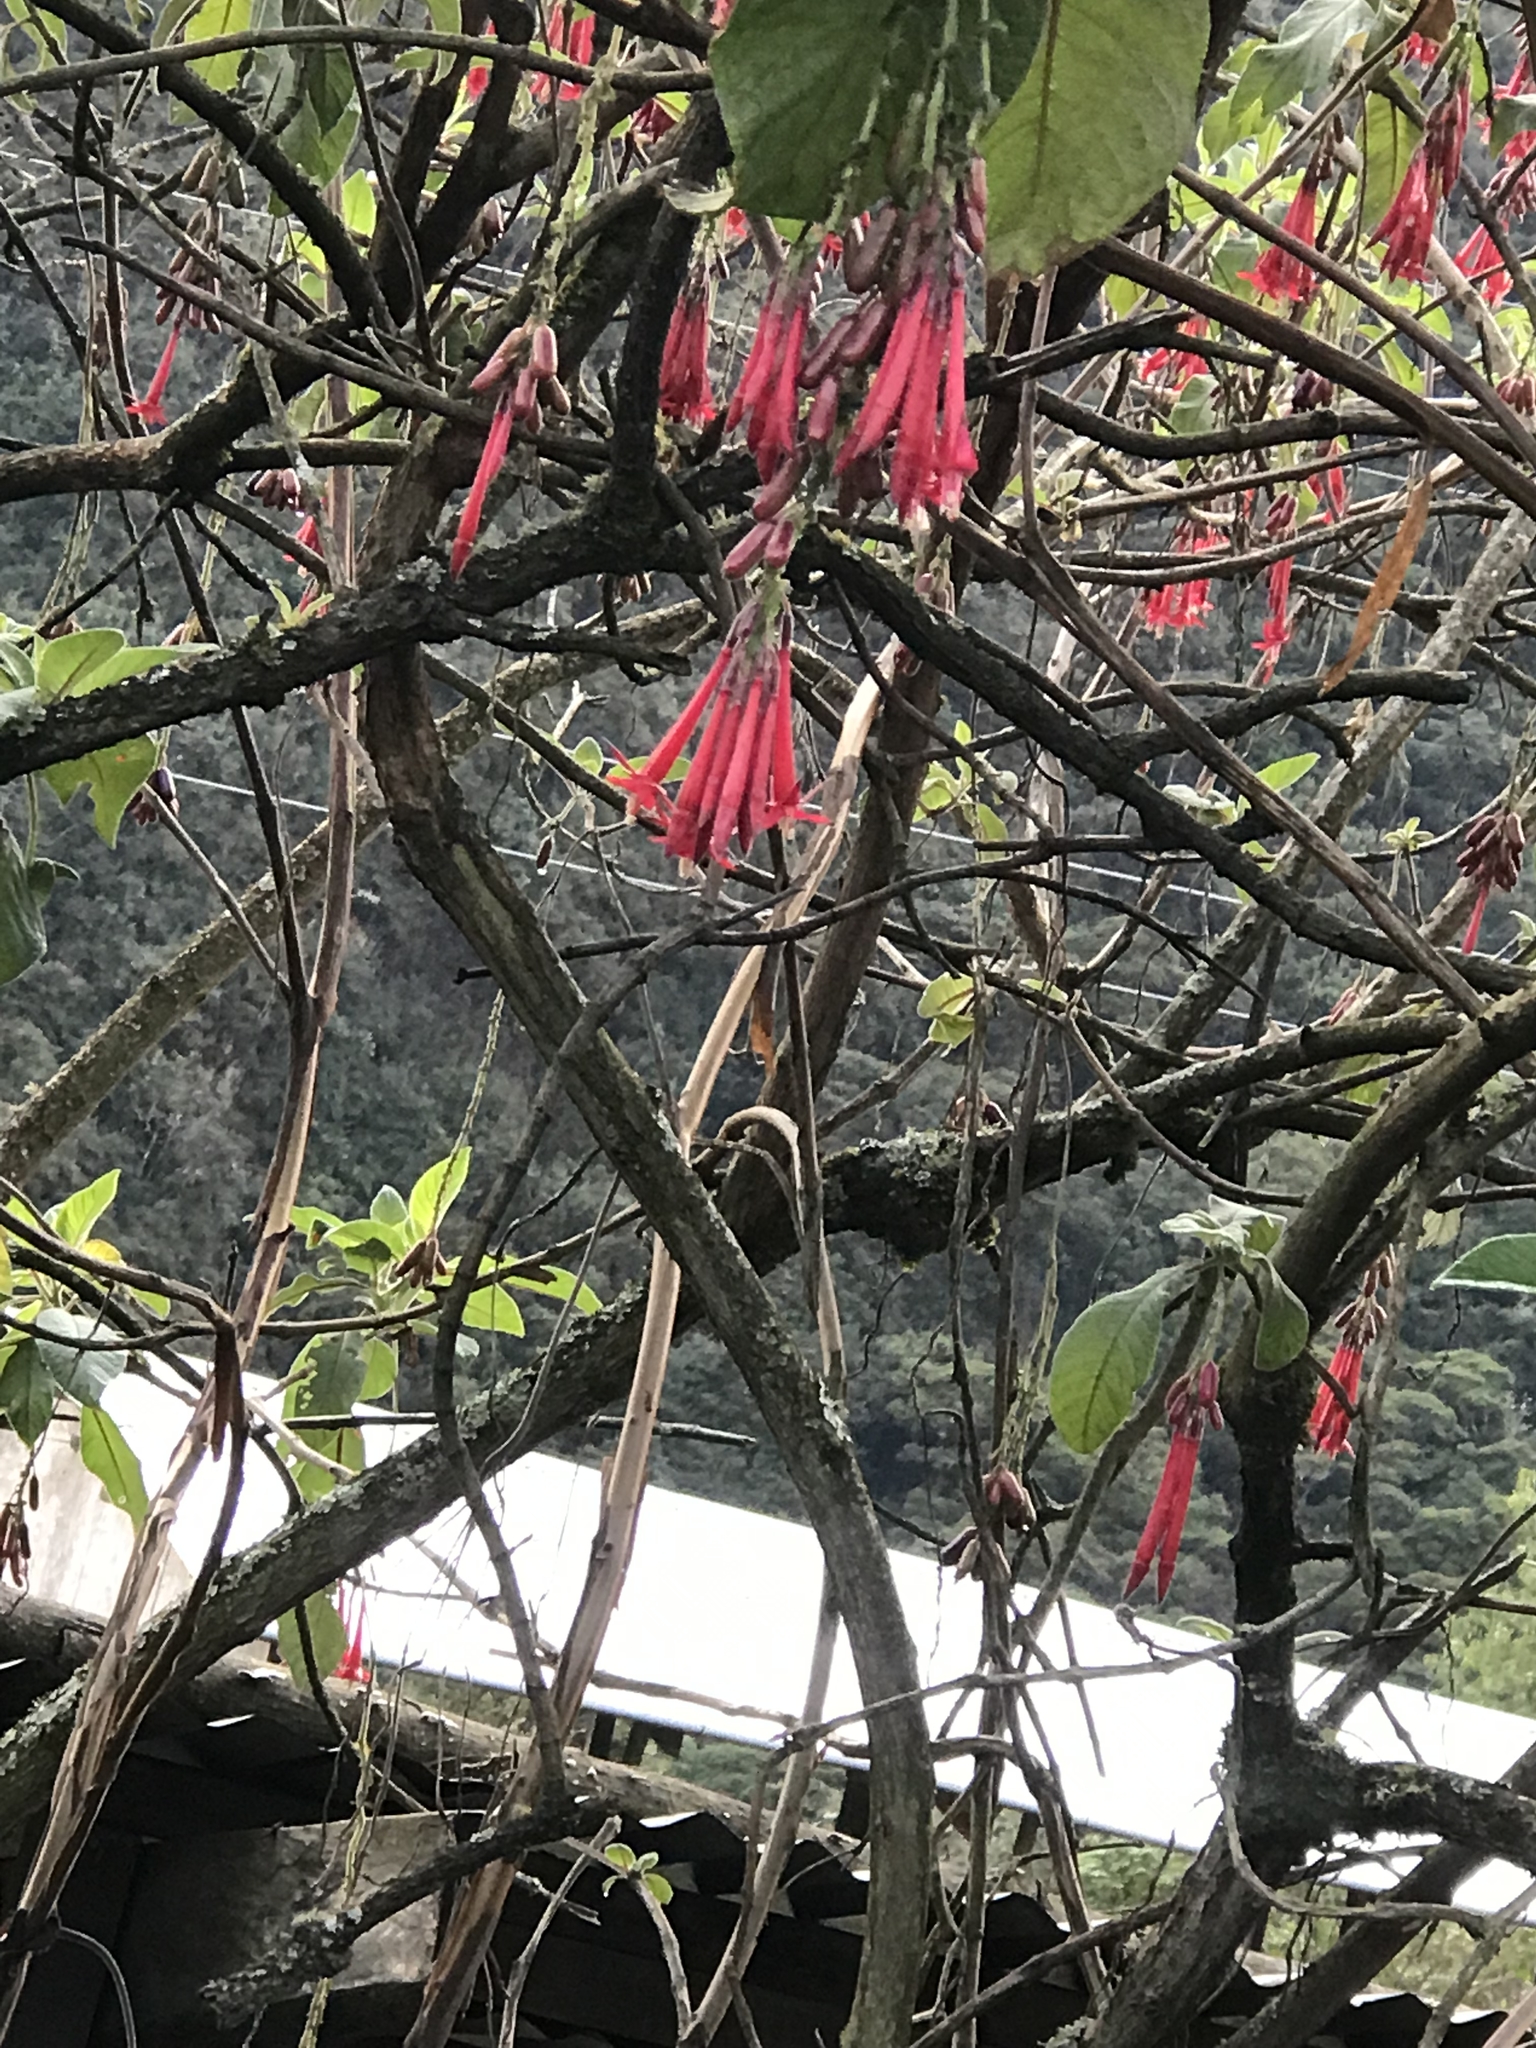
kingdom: Plantae
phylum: Tracheophyta
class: Magnoliopsida
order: Myrtales
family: Onagraceae
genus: Fuchsia
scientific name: Fuchsia boliviana
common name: Bolivian fuchsia
